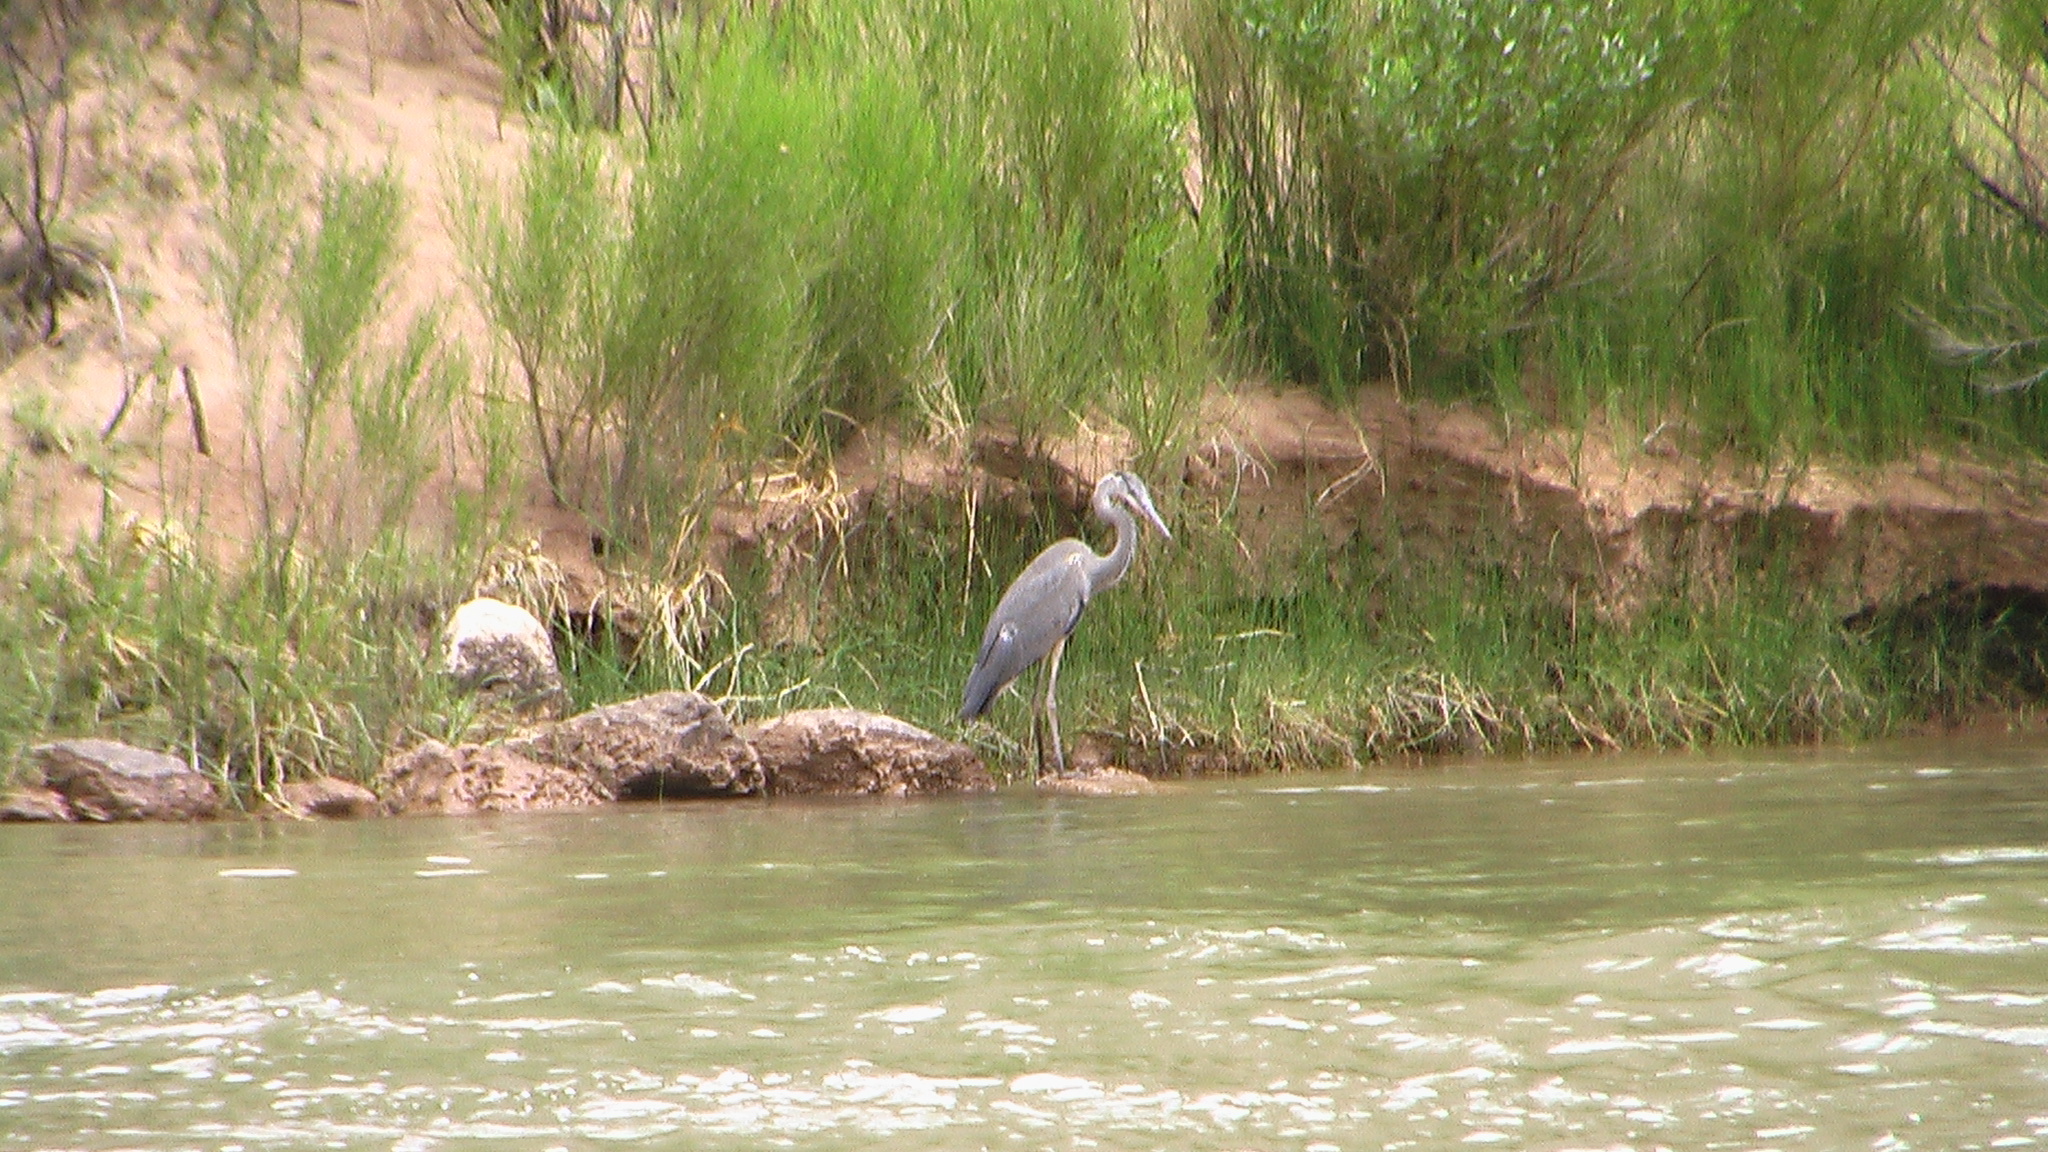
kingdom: Animalia
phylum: Chordata
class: Aves
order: Pelecaniformes
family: Ardeidae
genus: Ardea
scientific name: Ardea herodias
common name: Great blue heron
